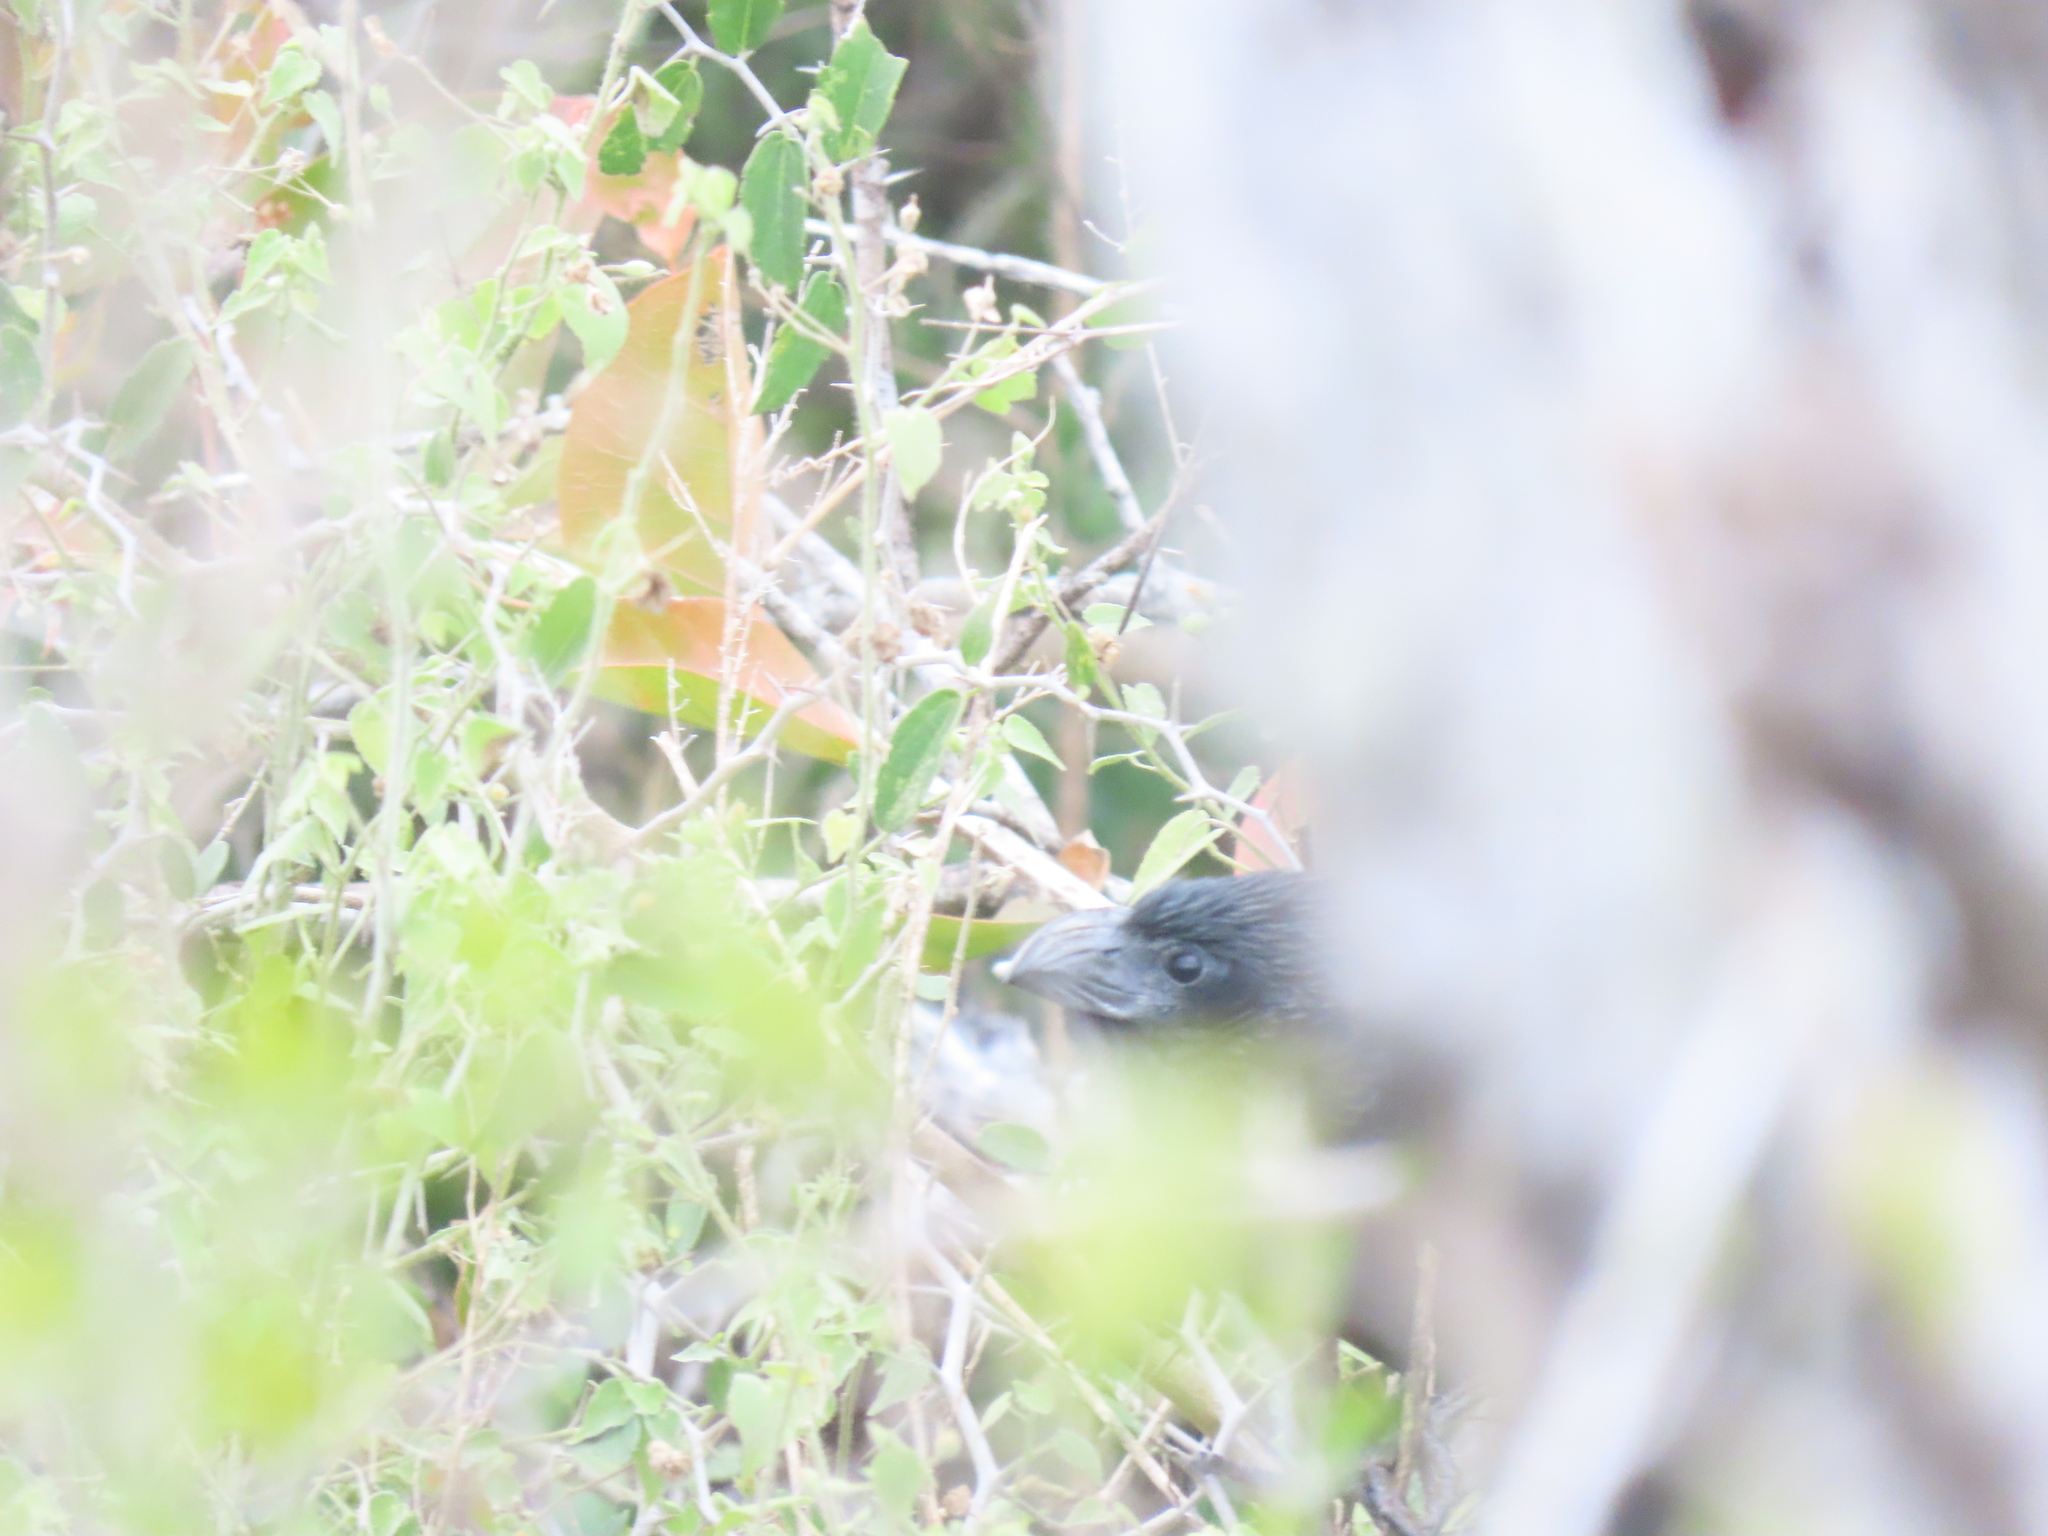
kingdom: Animalia
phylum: Chordata
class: Aves
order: Cuculiformes
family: Cuculidae
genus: Crotophaga
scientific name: Crotophaga sulcirostris
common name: Groove-billed ani
